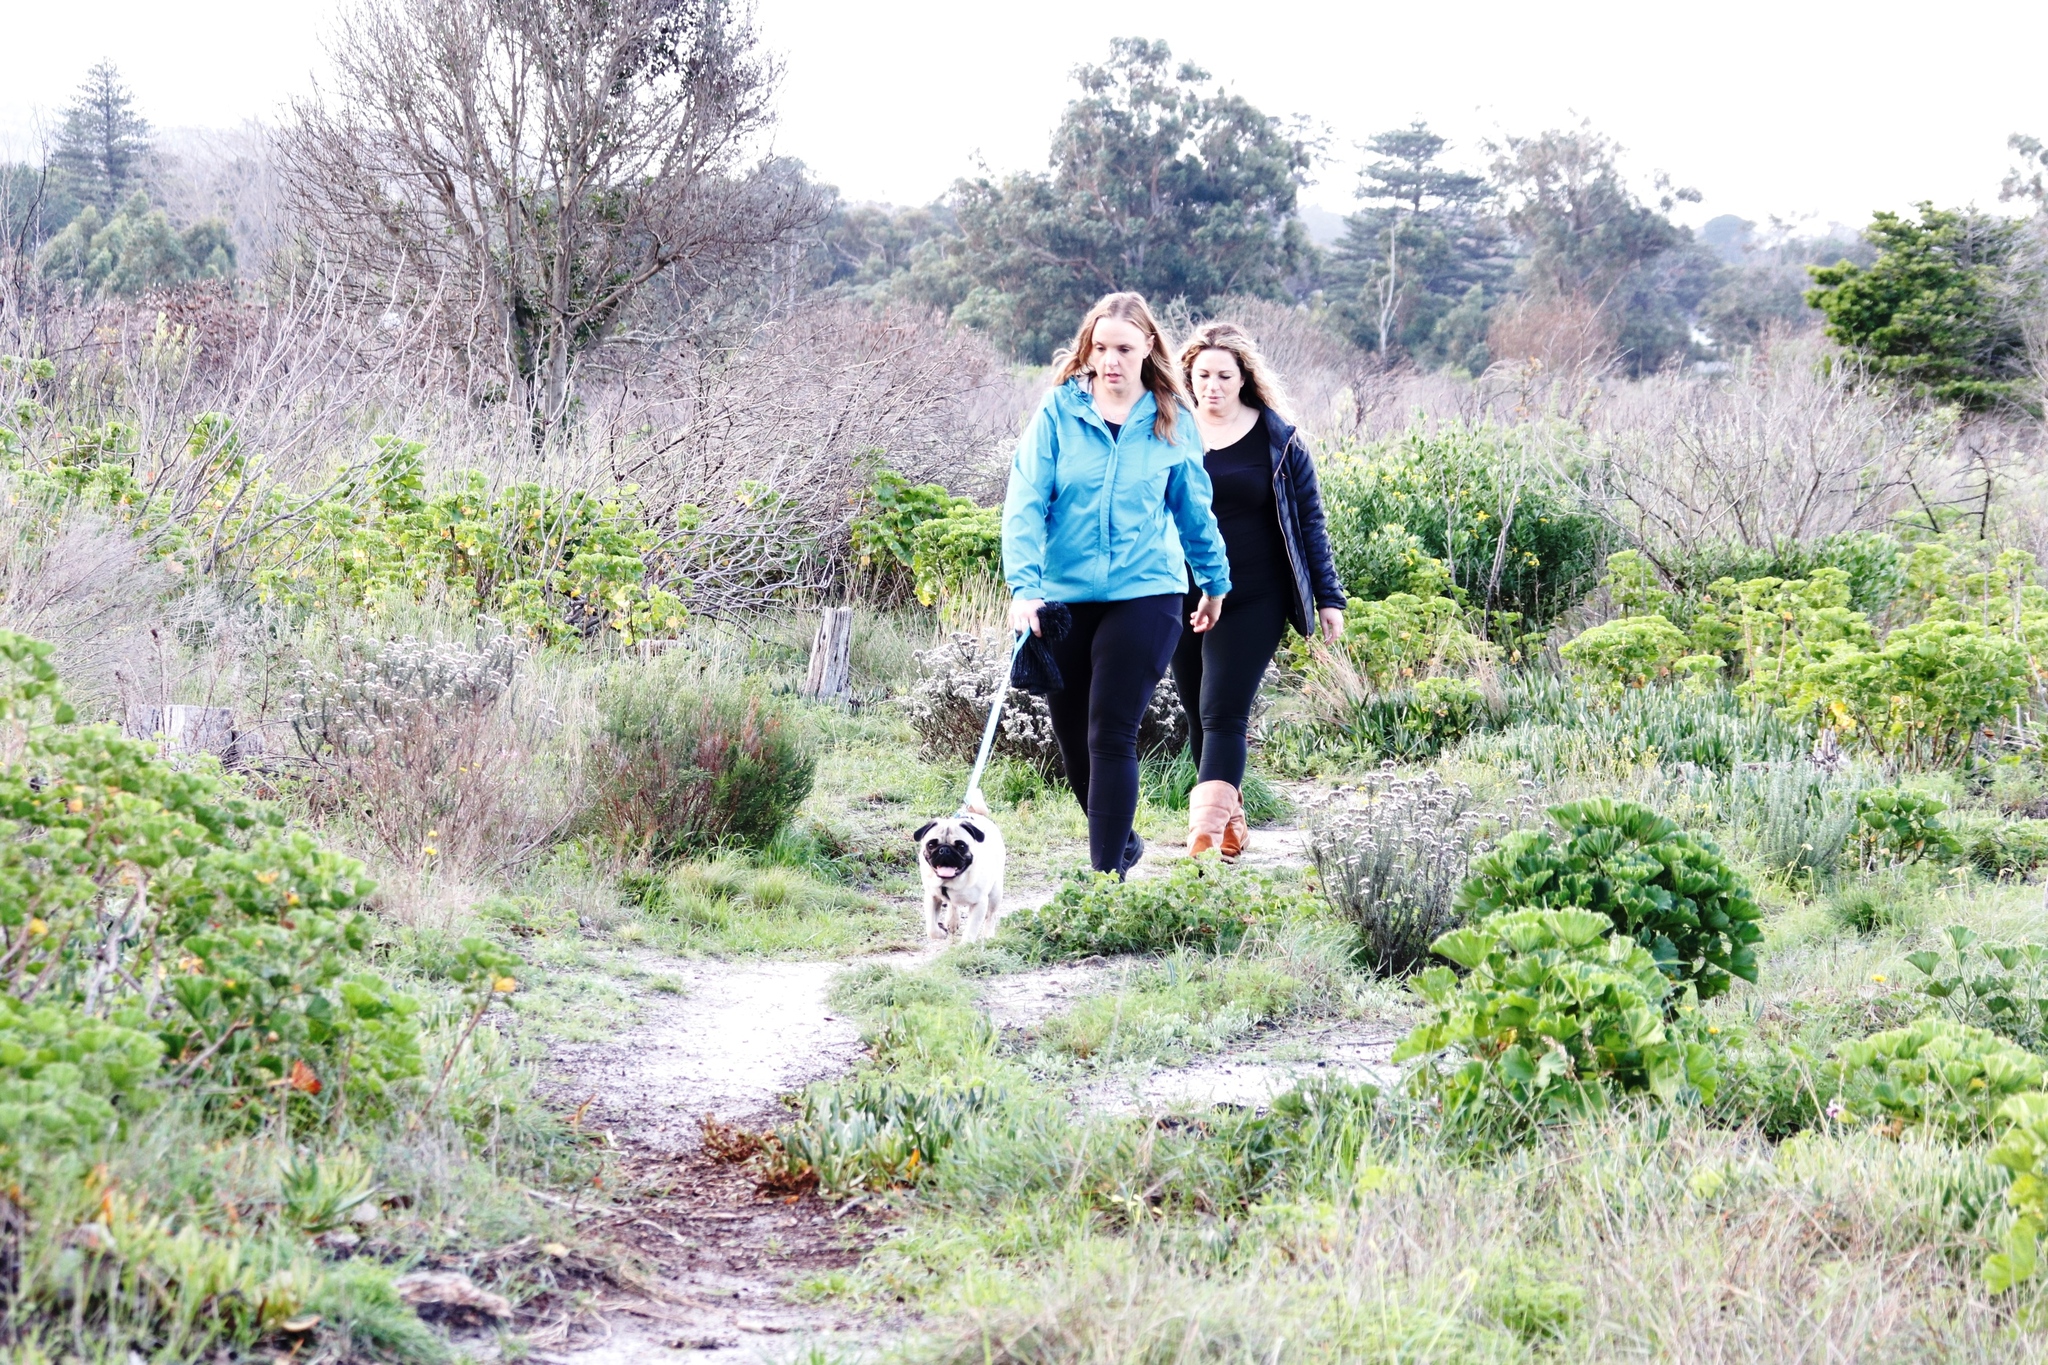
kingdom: Plantae
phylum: Tracheophyta
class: Magnoliopsida
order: Geraniales
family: Geraniaceae
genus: Pelargonium
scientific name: Pelargonium cucullatum
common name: Tree pelargonium
